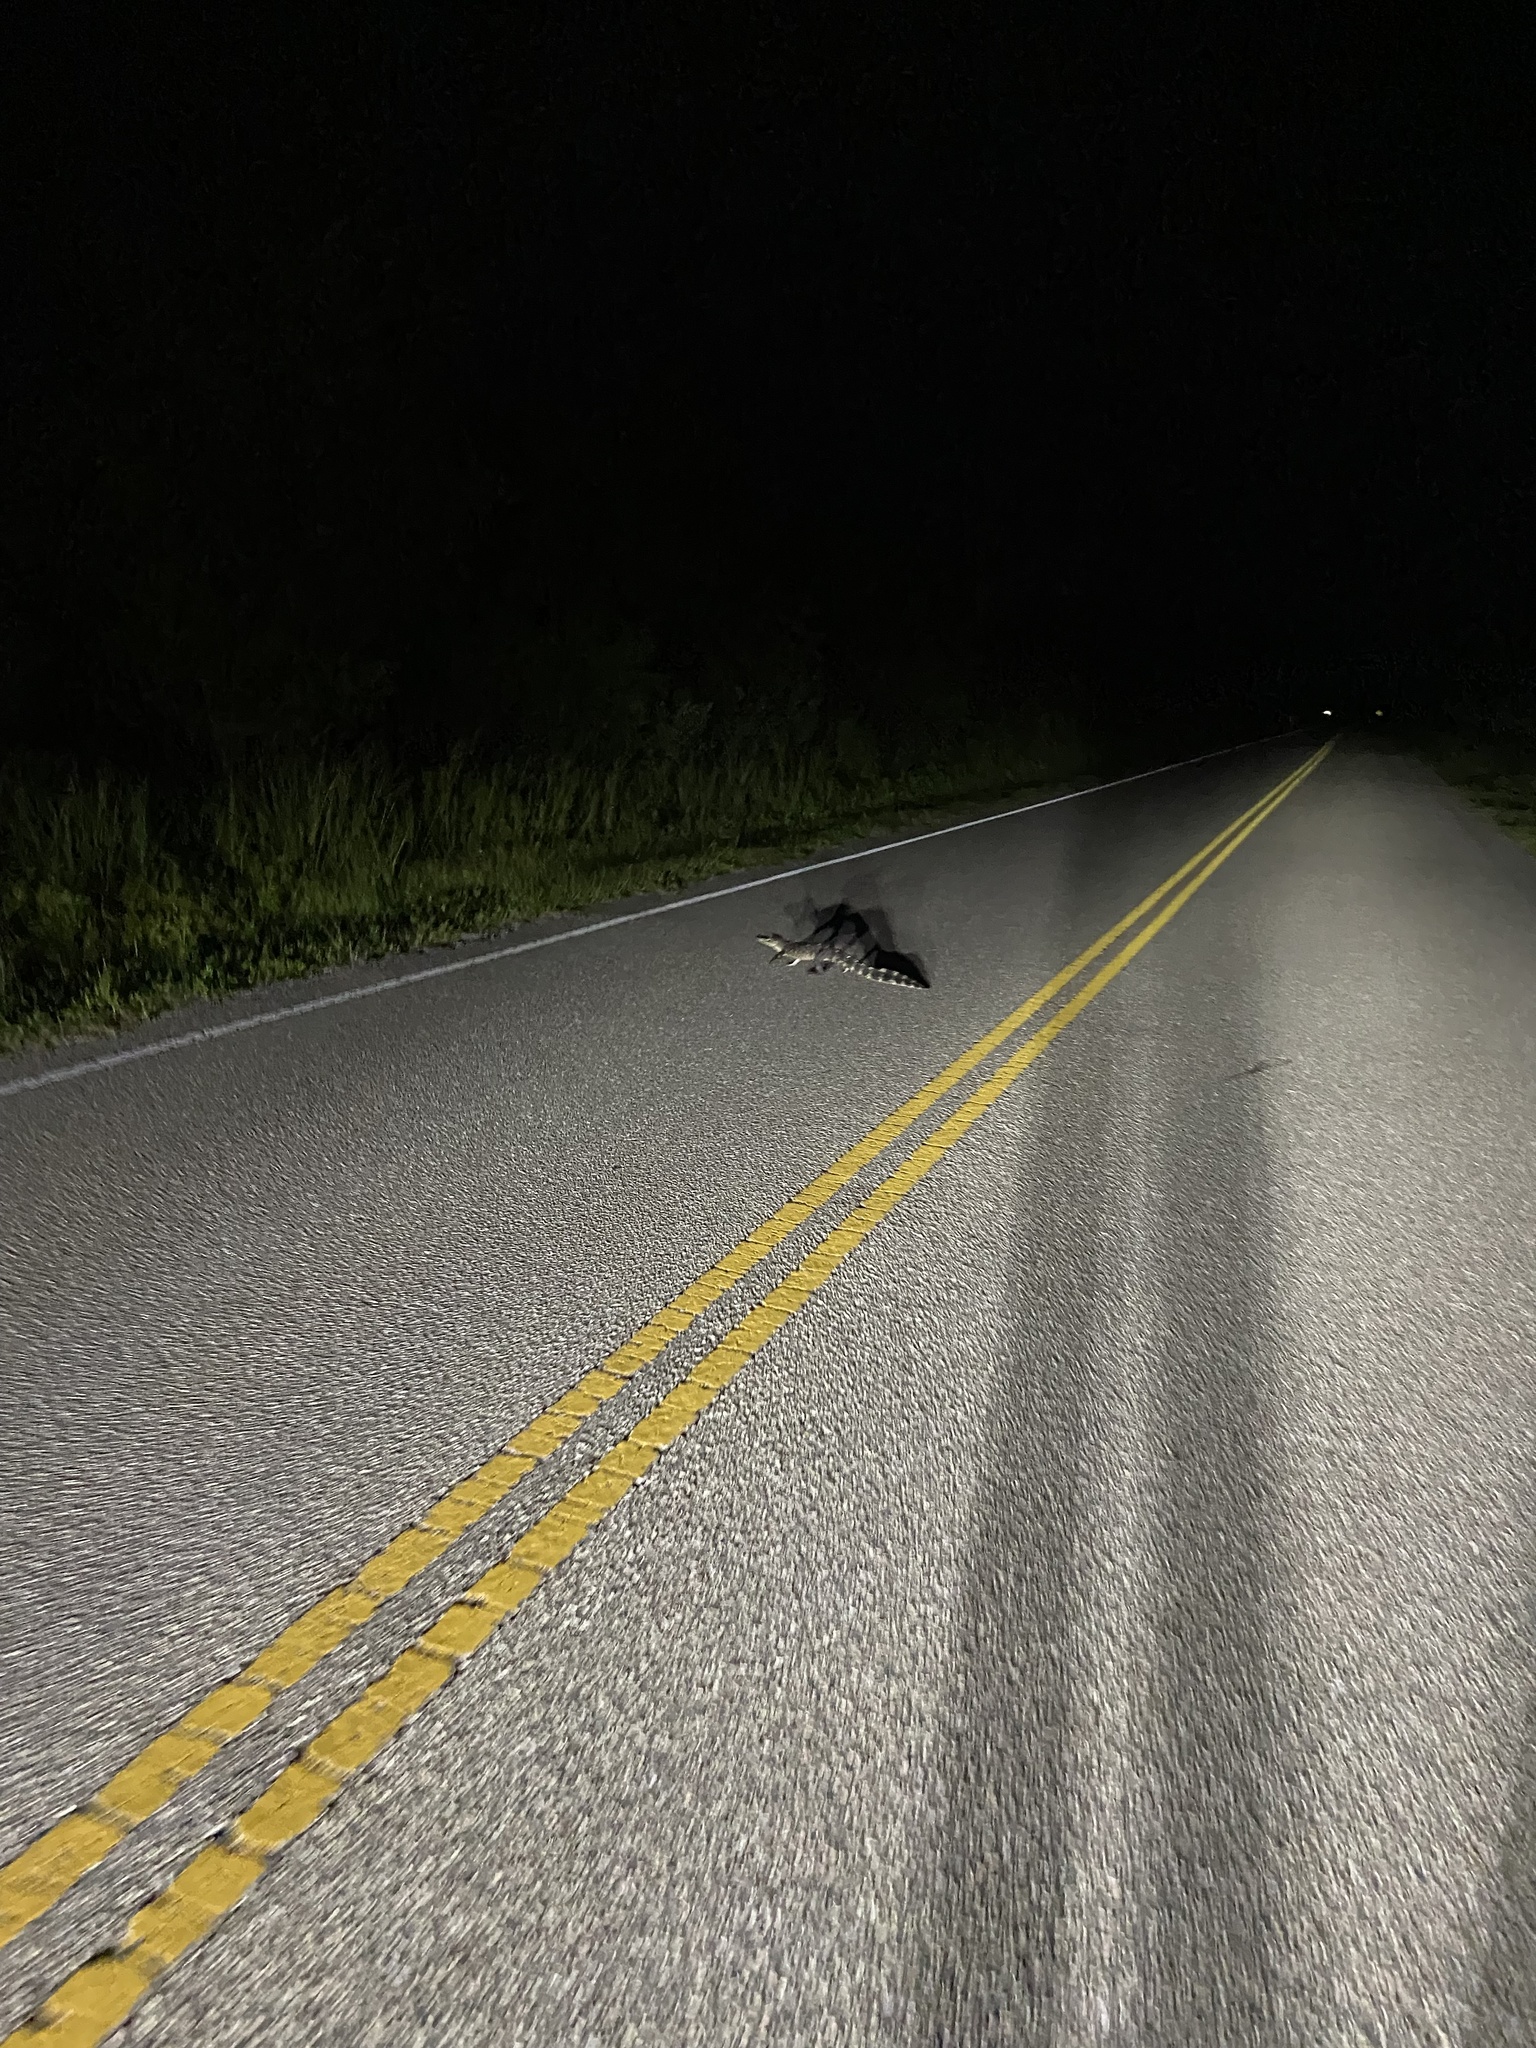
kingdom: Animalia
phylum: Chordata
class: Crocodylia
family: Alligatoridae
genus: Alligator
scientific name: Alligator mississippiensis
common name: American alligator
